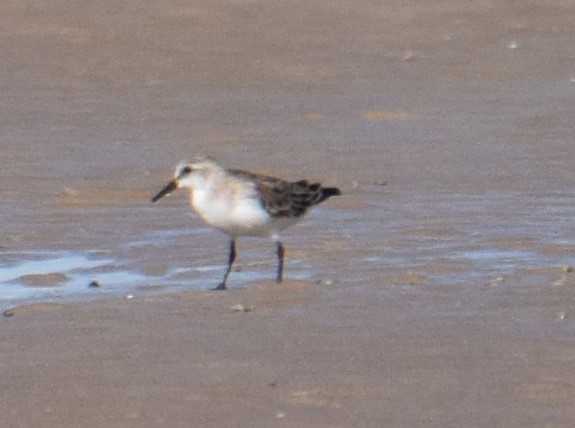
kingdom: Animalia
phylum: Chordata
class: Aves
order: Charadriiformes
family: Scolopacidae
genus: Calidris
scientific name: Calidris ruficollis
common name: Red-necked stint
